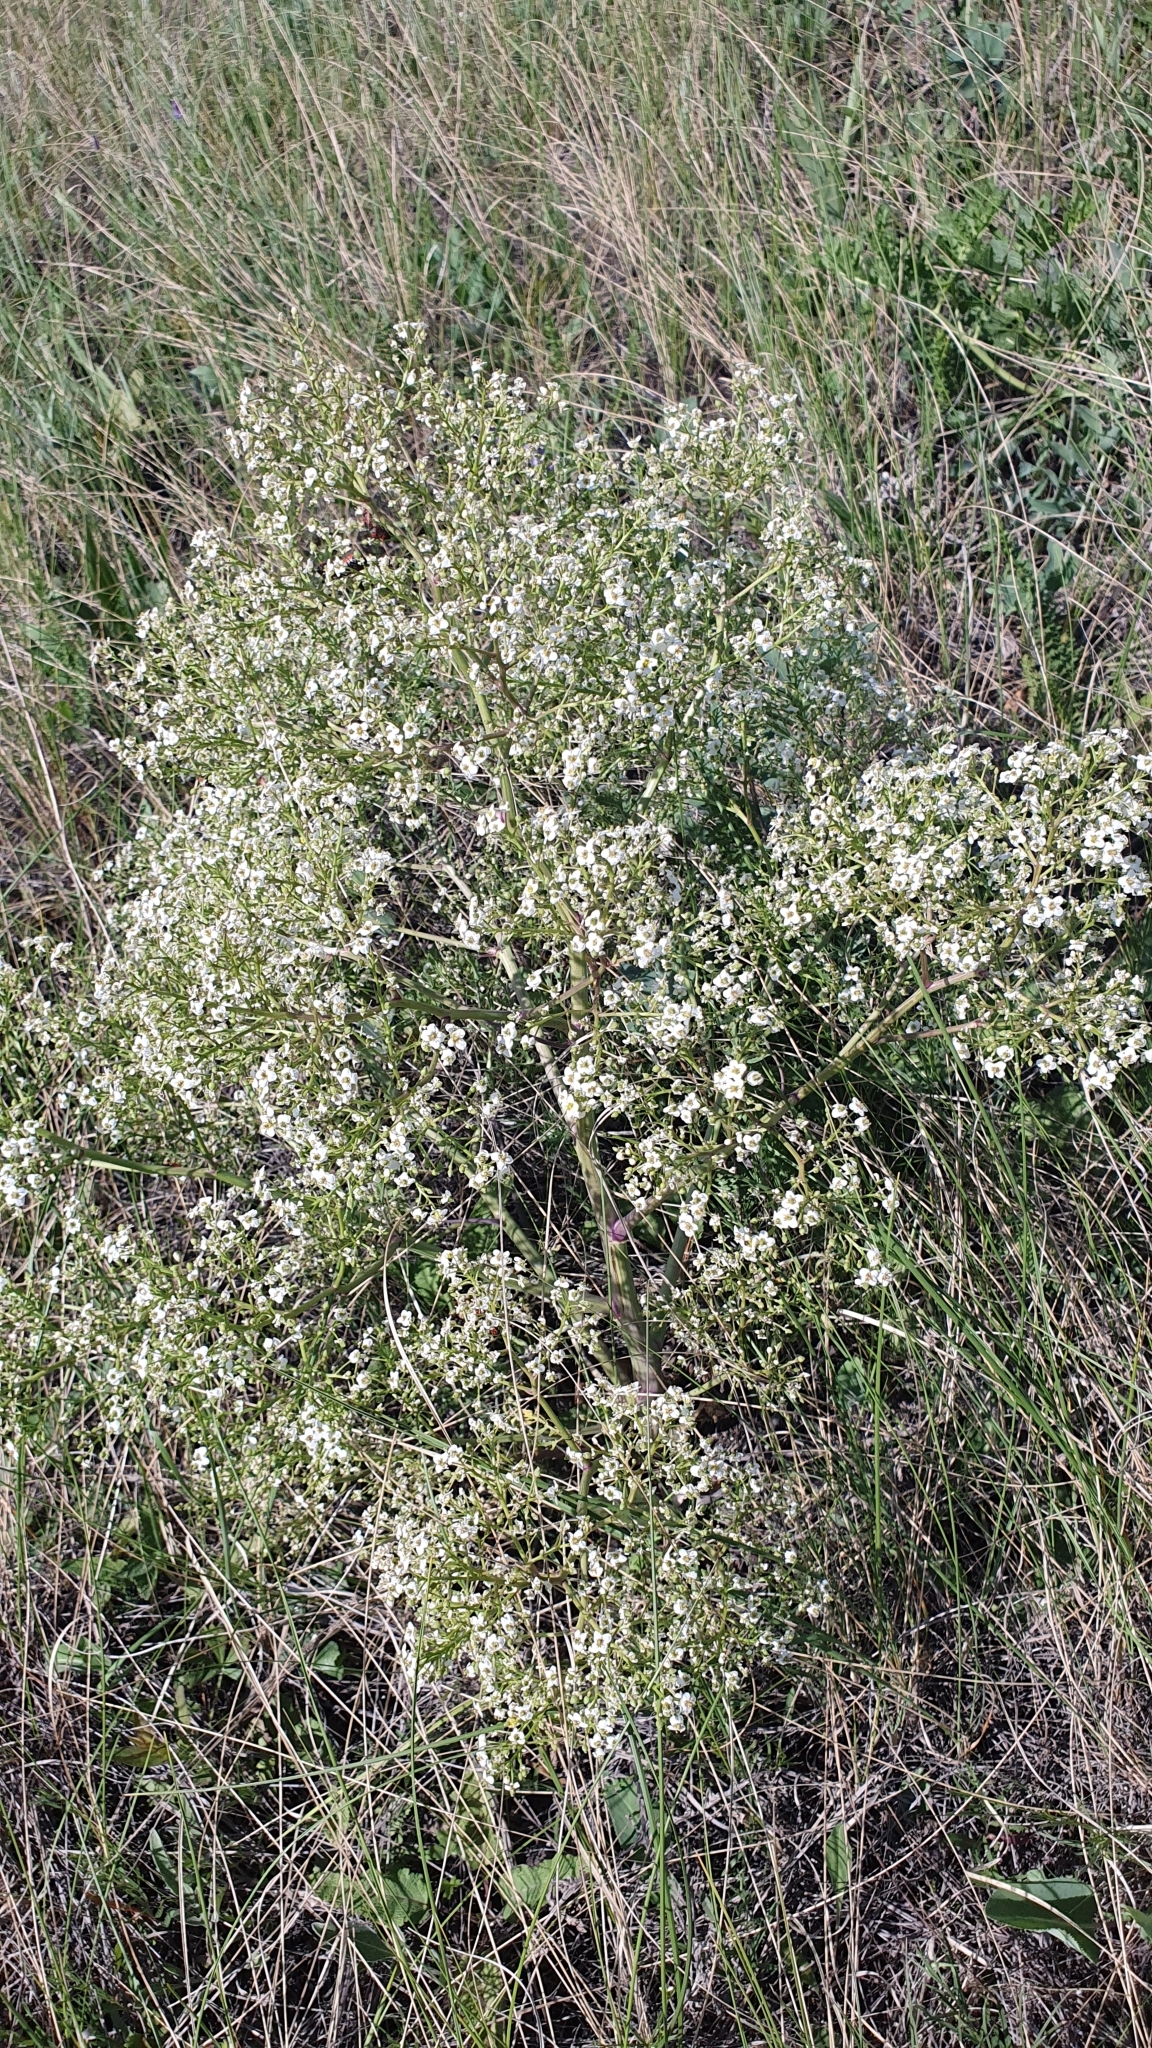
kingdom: Plantae
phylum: Tracheophyta
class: Magnoliopsida
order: Brassicales
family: Brassicaceae
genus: Crambe
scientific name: Crambe tataria
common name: Tartarian breadplant
